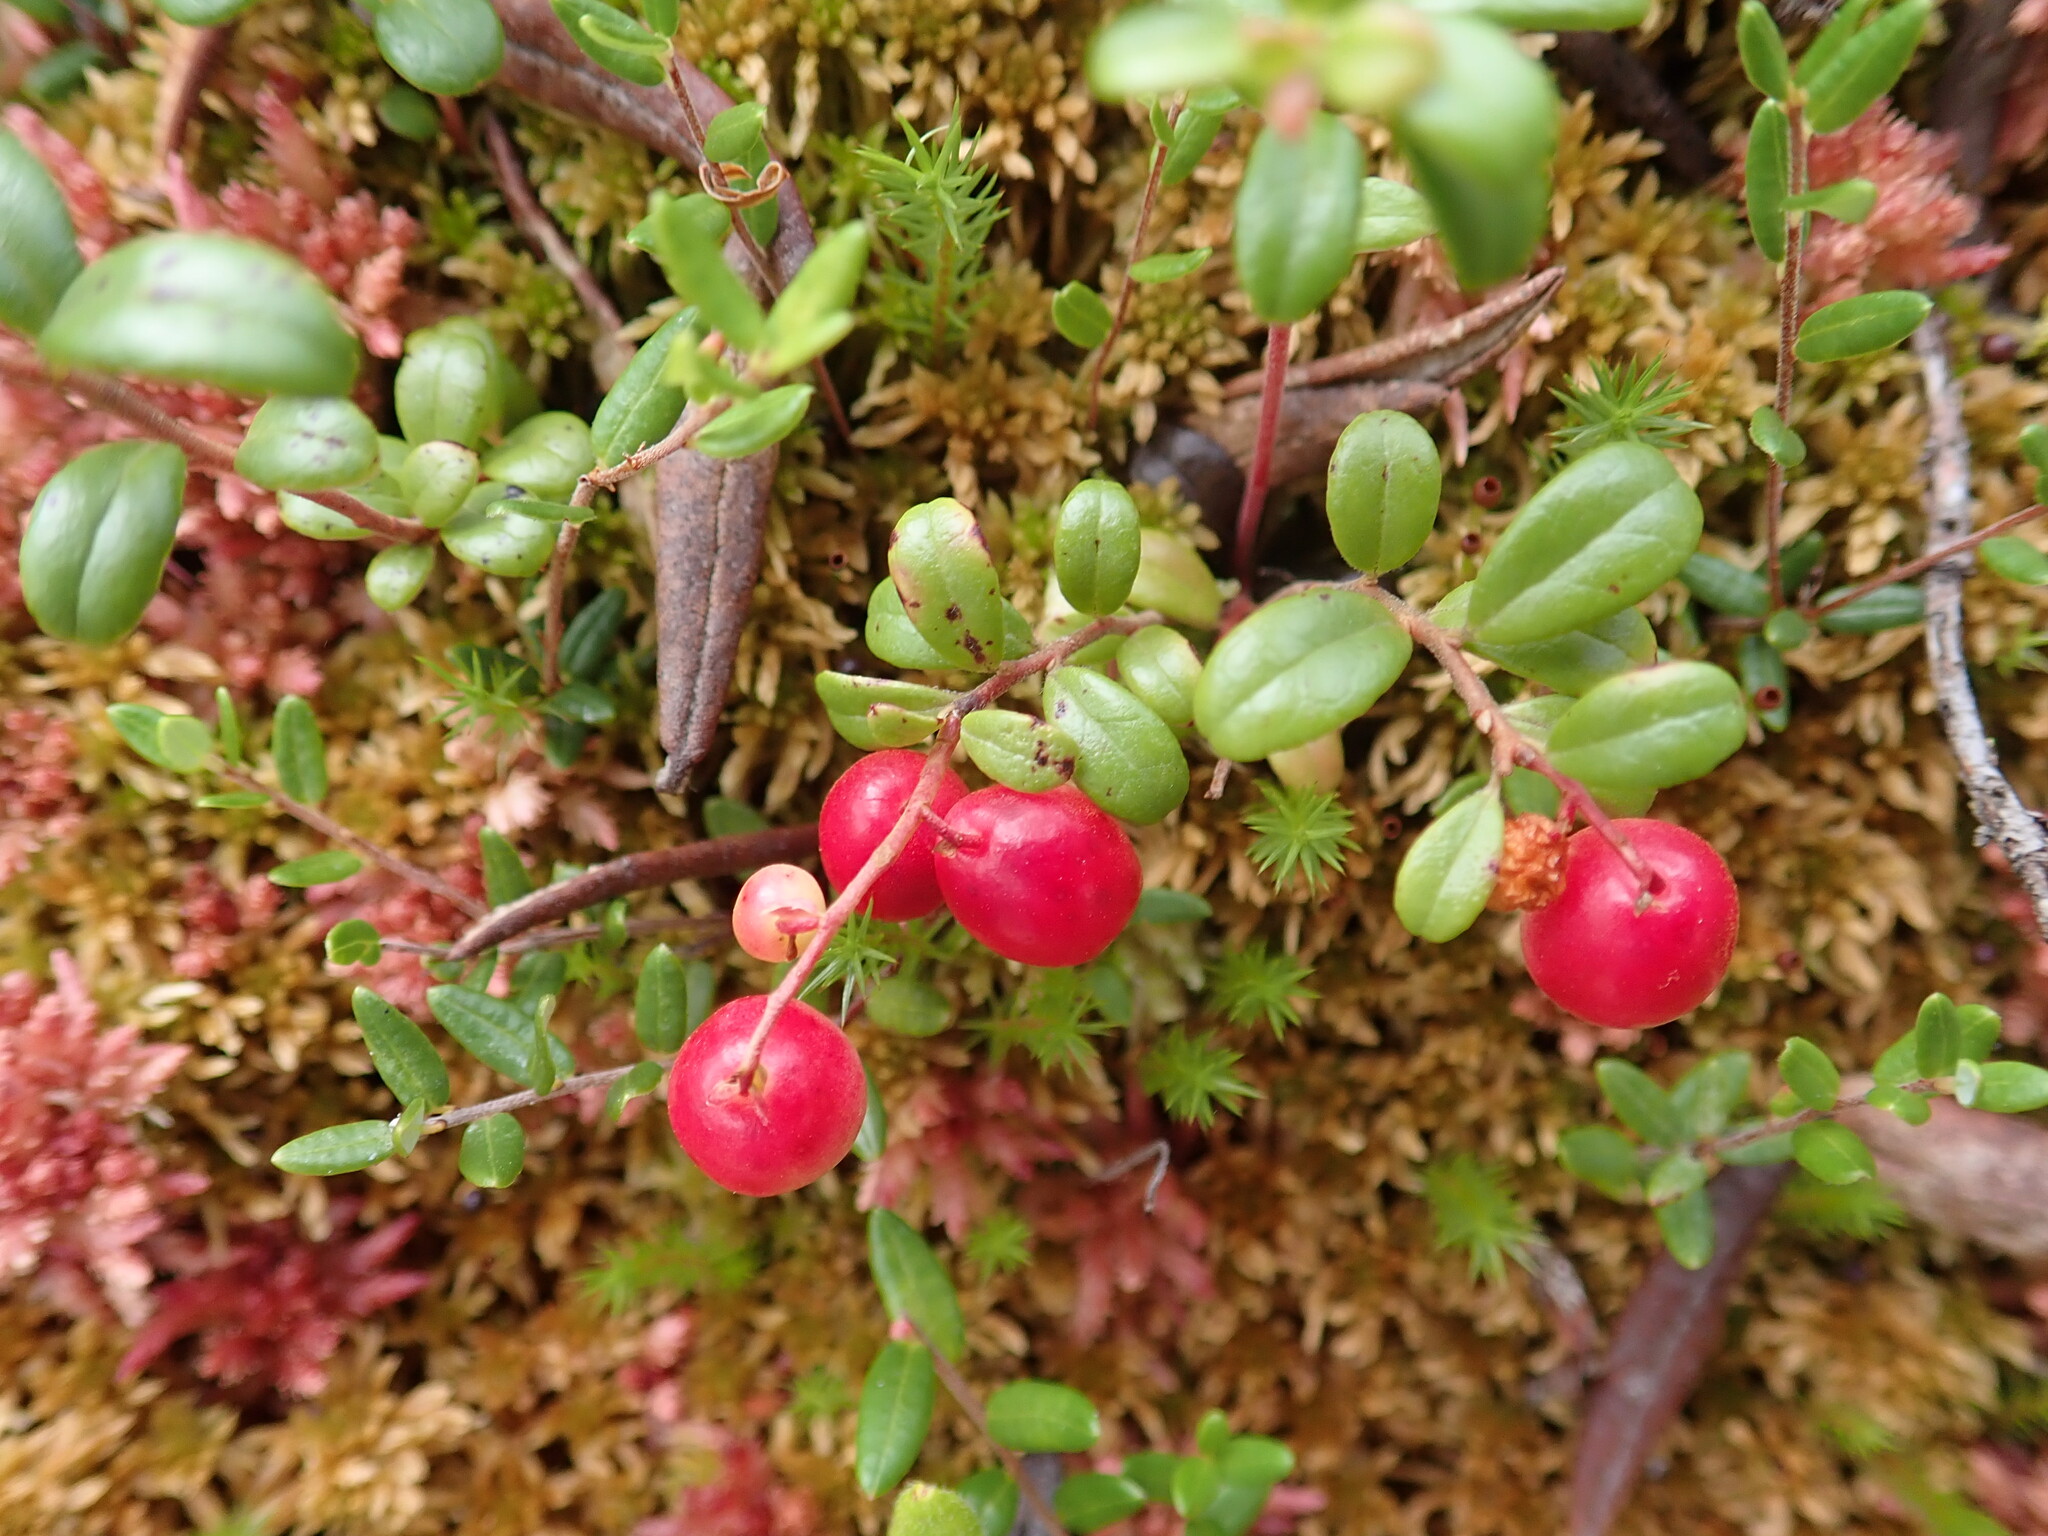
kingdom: Plantae
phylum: Tracheophyta
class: Magnoliopsida
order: Ericales
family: Ericaceae
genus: Vaccinium
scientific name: Vaccinium vitis-idaea
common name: Cowberry
